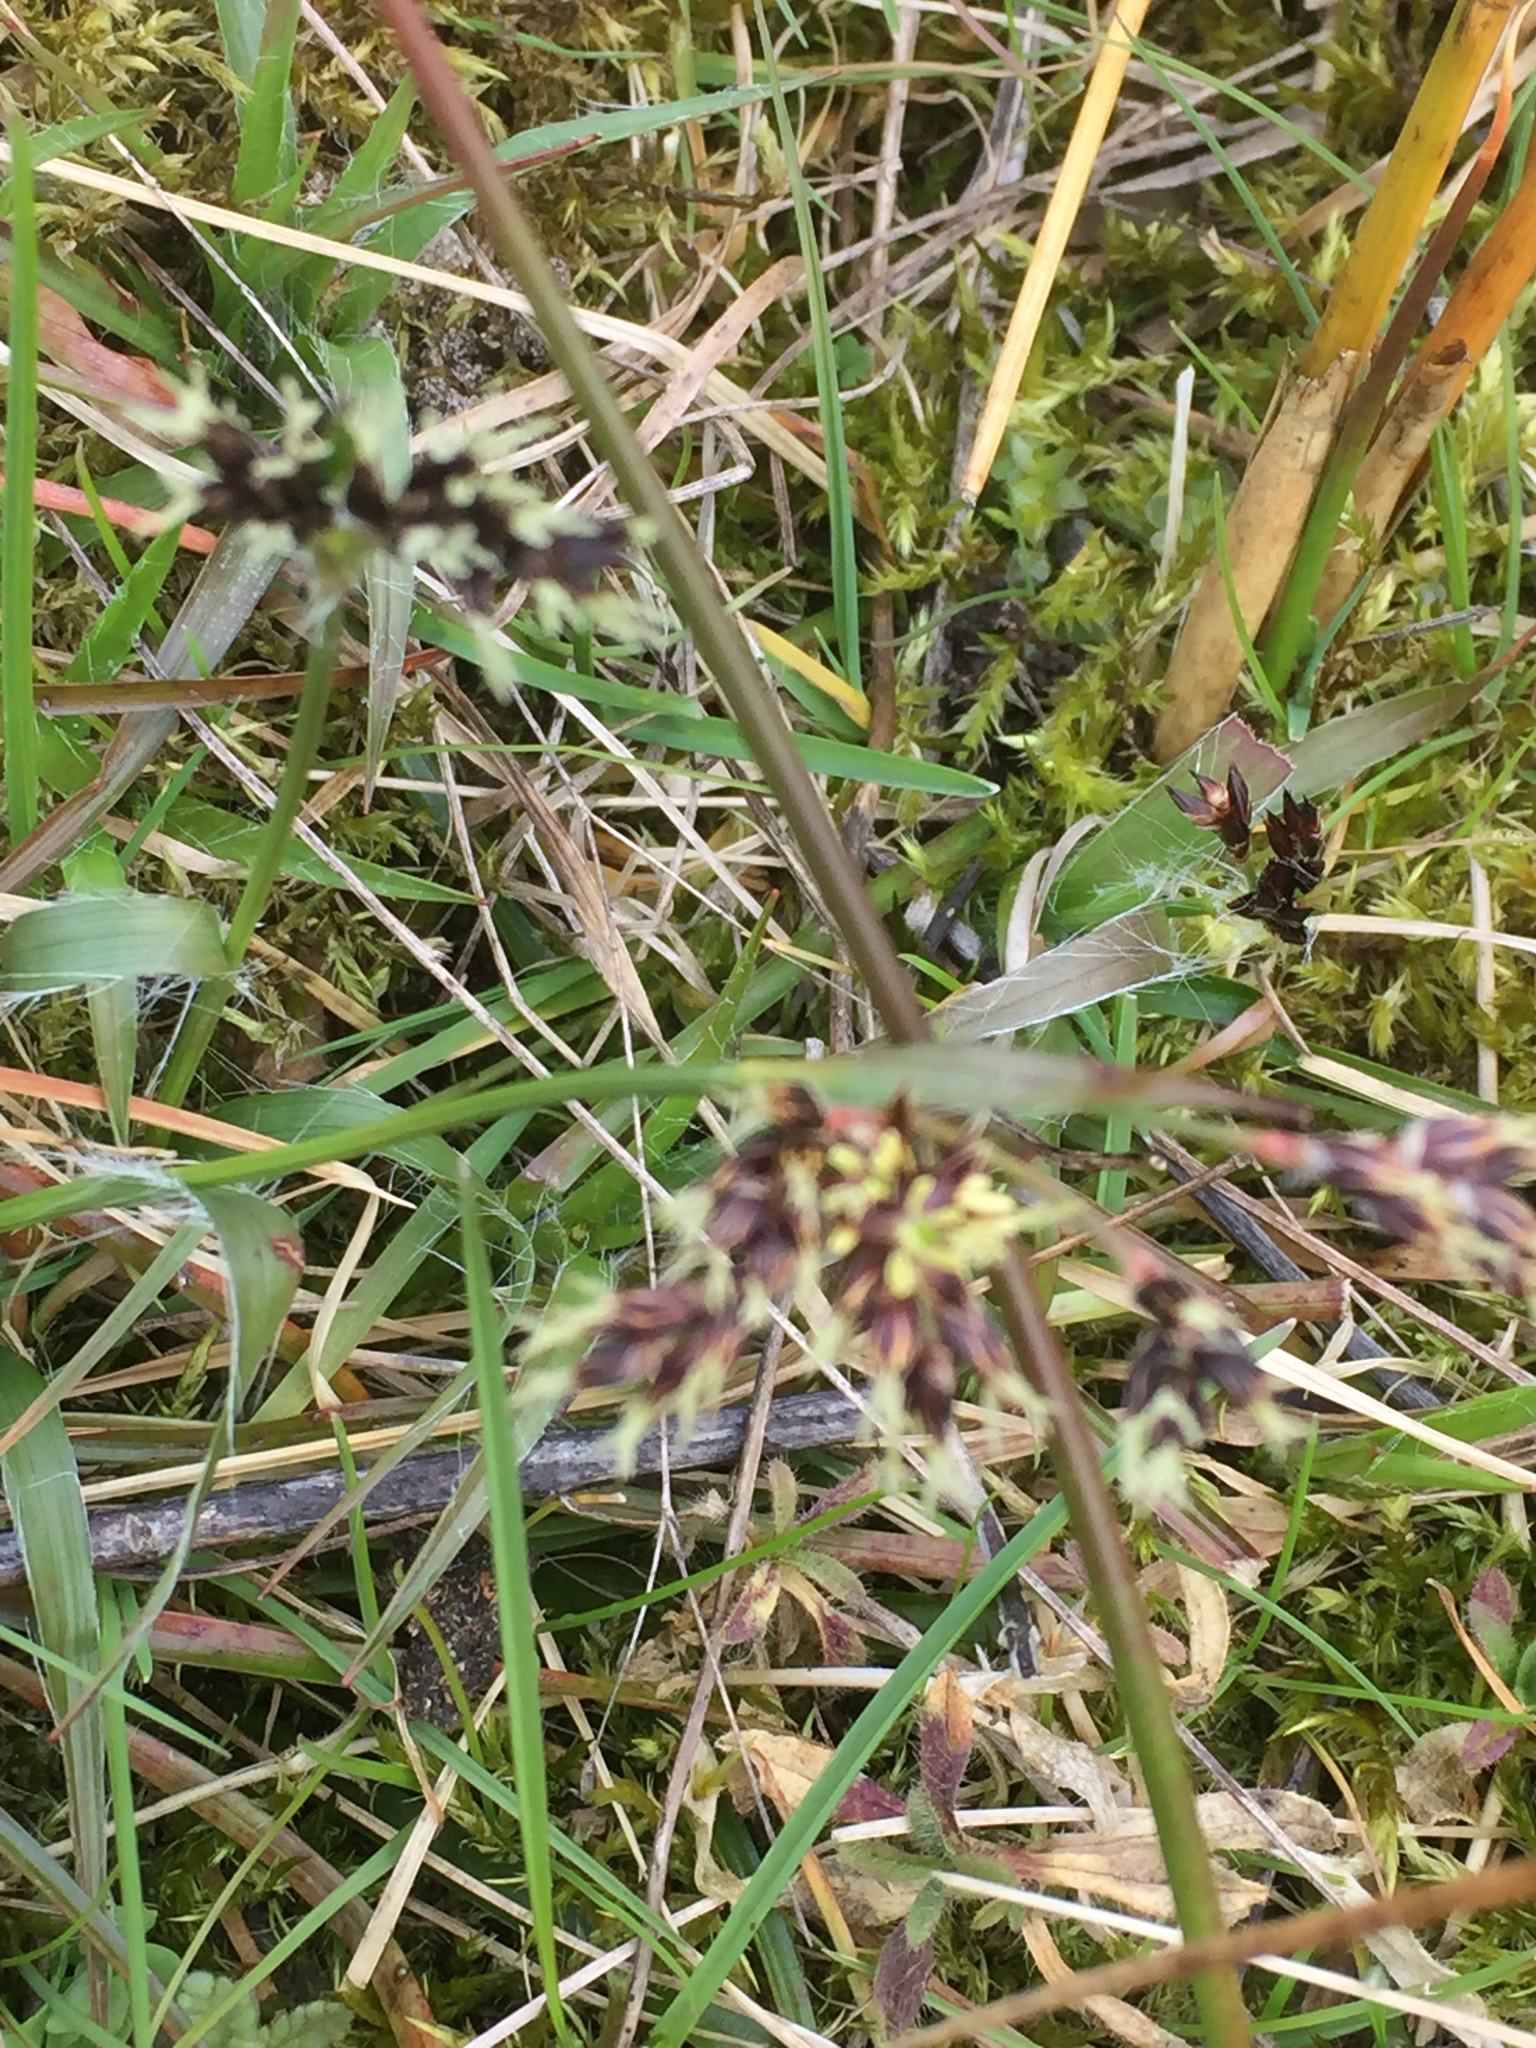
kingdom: Plantae
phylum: Tracheophyta
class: Liliopsida
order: Poales
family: Juncaceae
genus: Luzula
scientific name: Luzula campestris
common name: Field wood-rush
